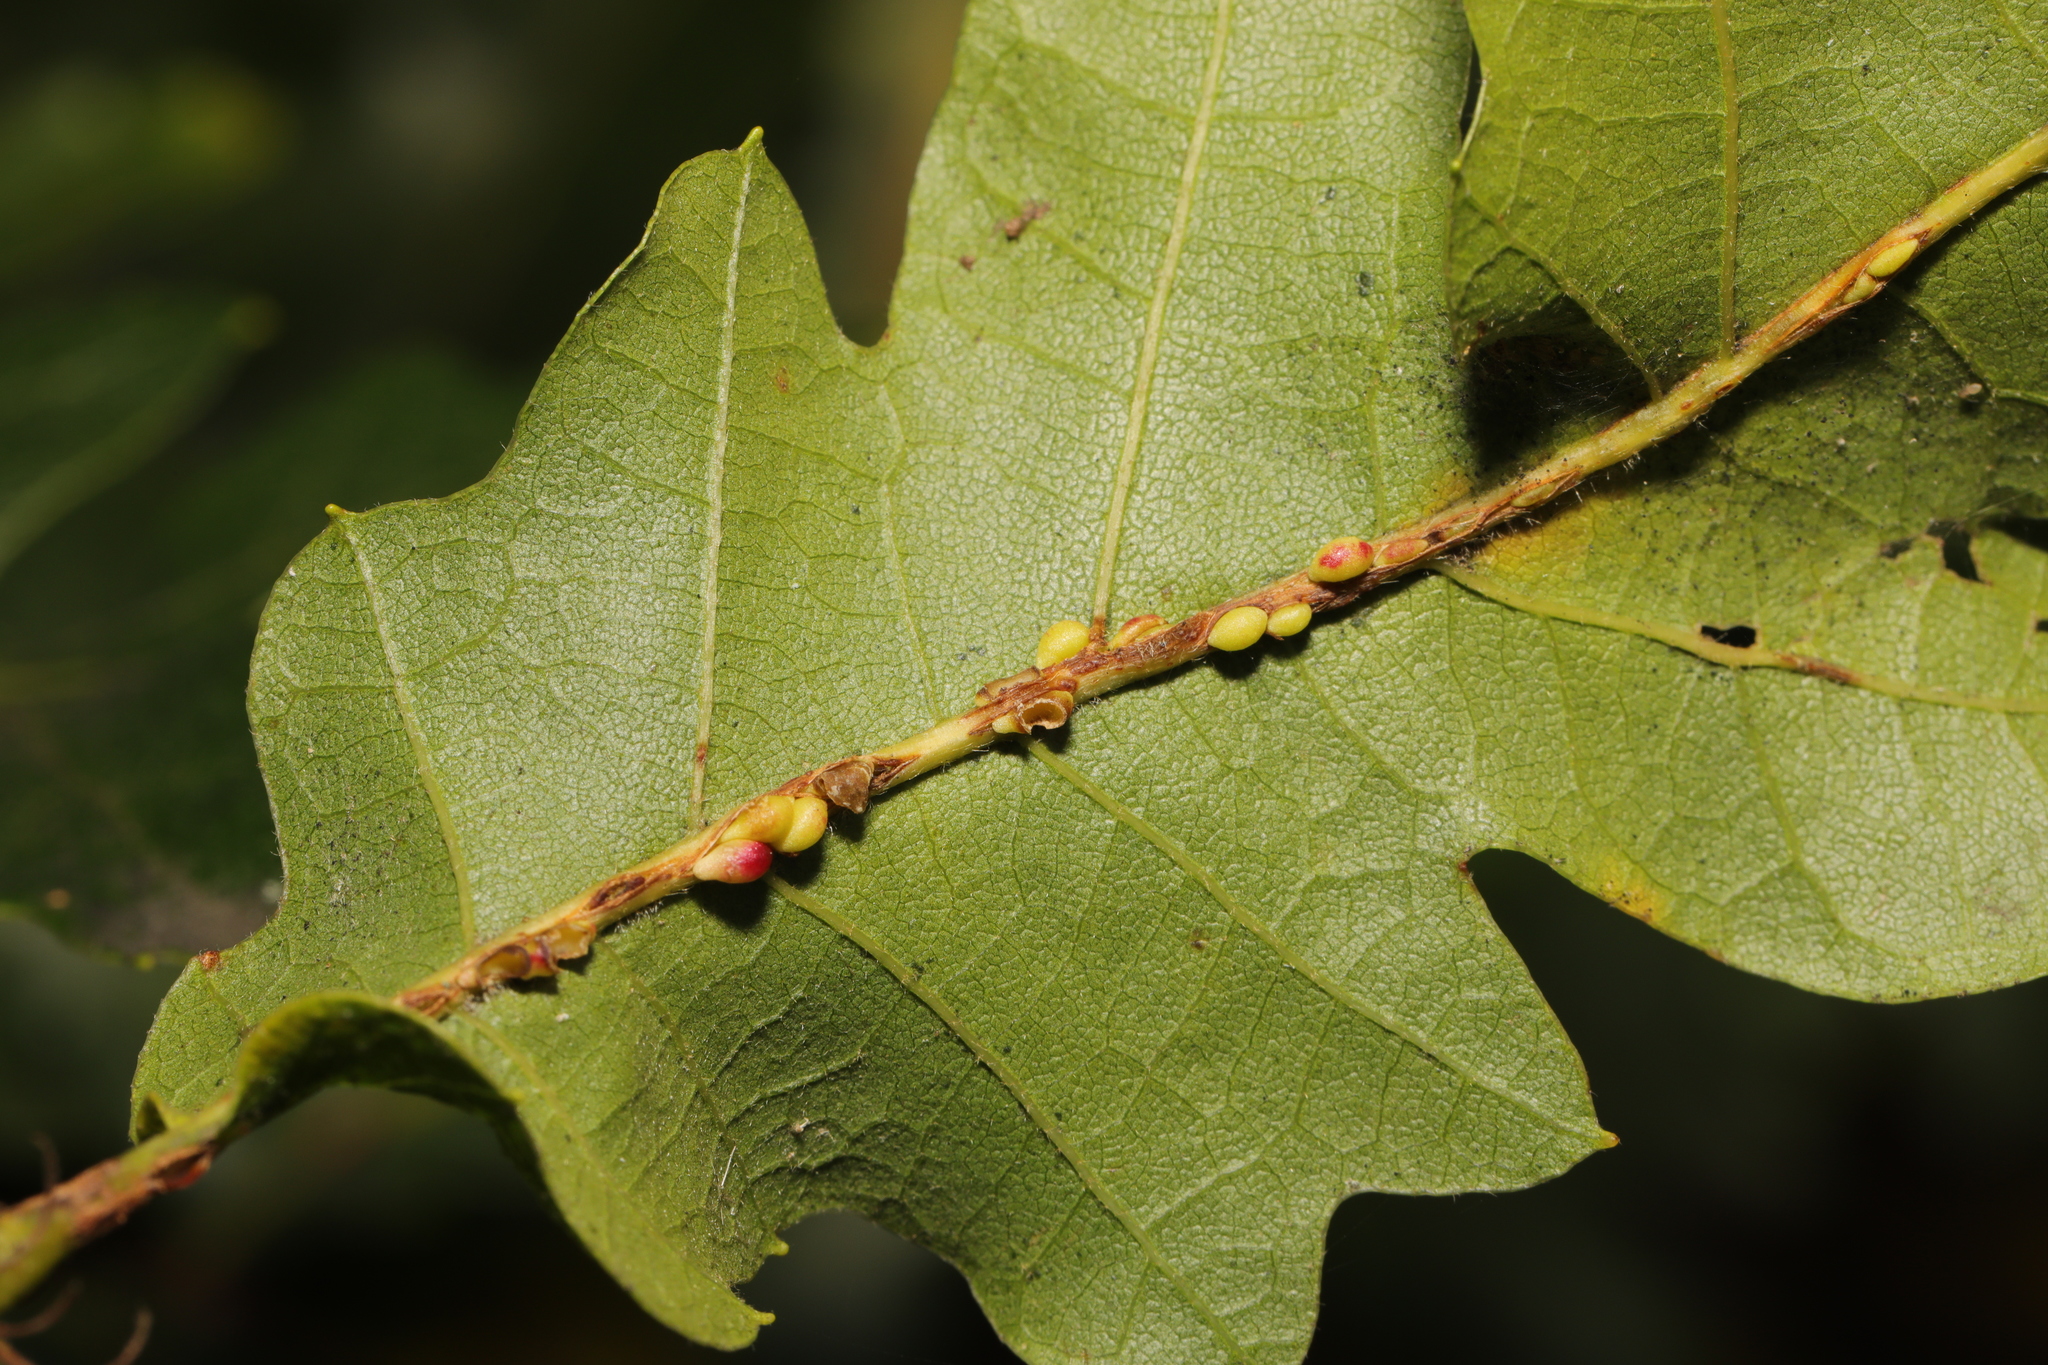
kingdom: Animalia
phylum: Arthropoda
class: Insecta
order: Hymenoptera
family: Cynipidae
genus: Neuroterus
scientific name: Neuroterus anthracinus
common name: Oyster gall
